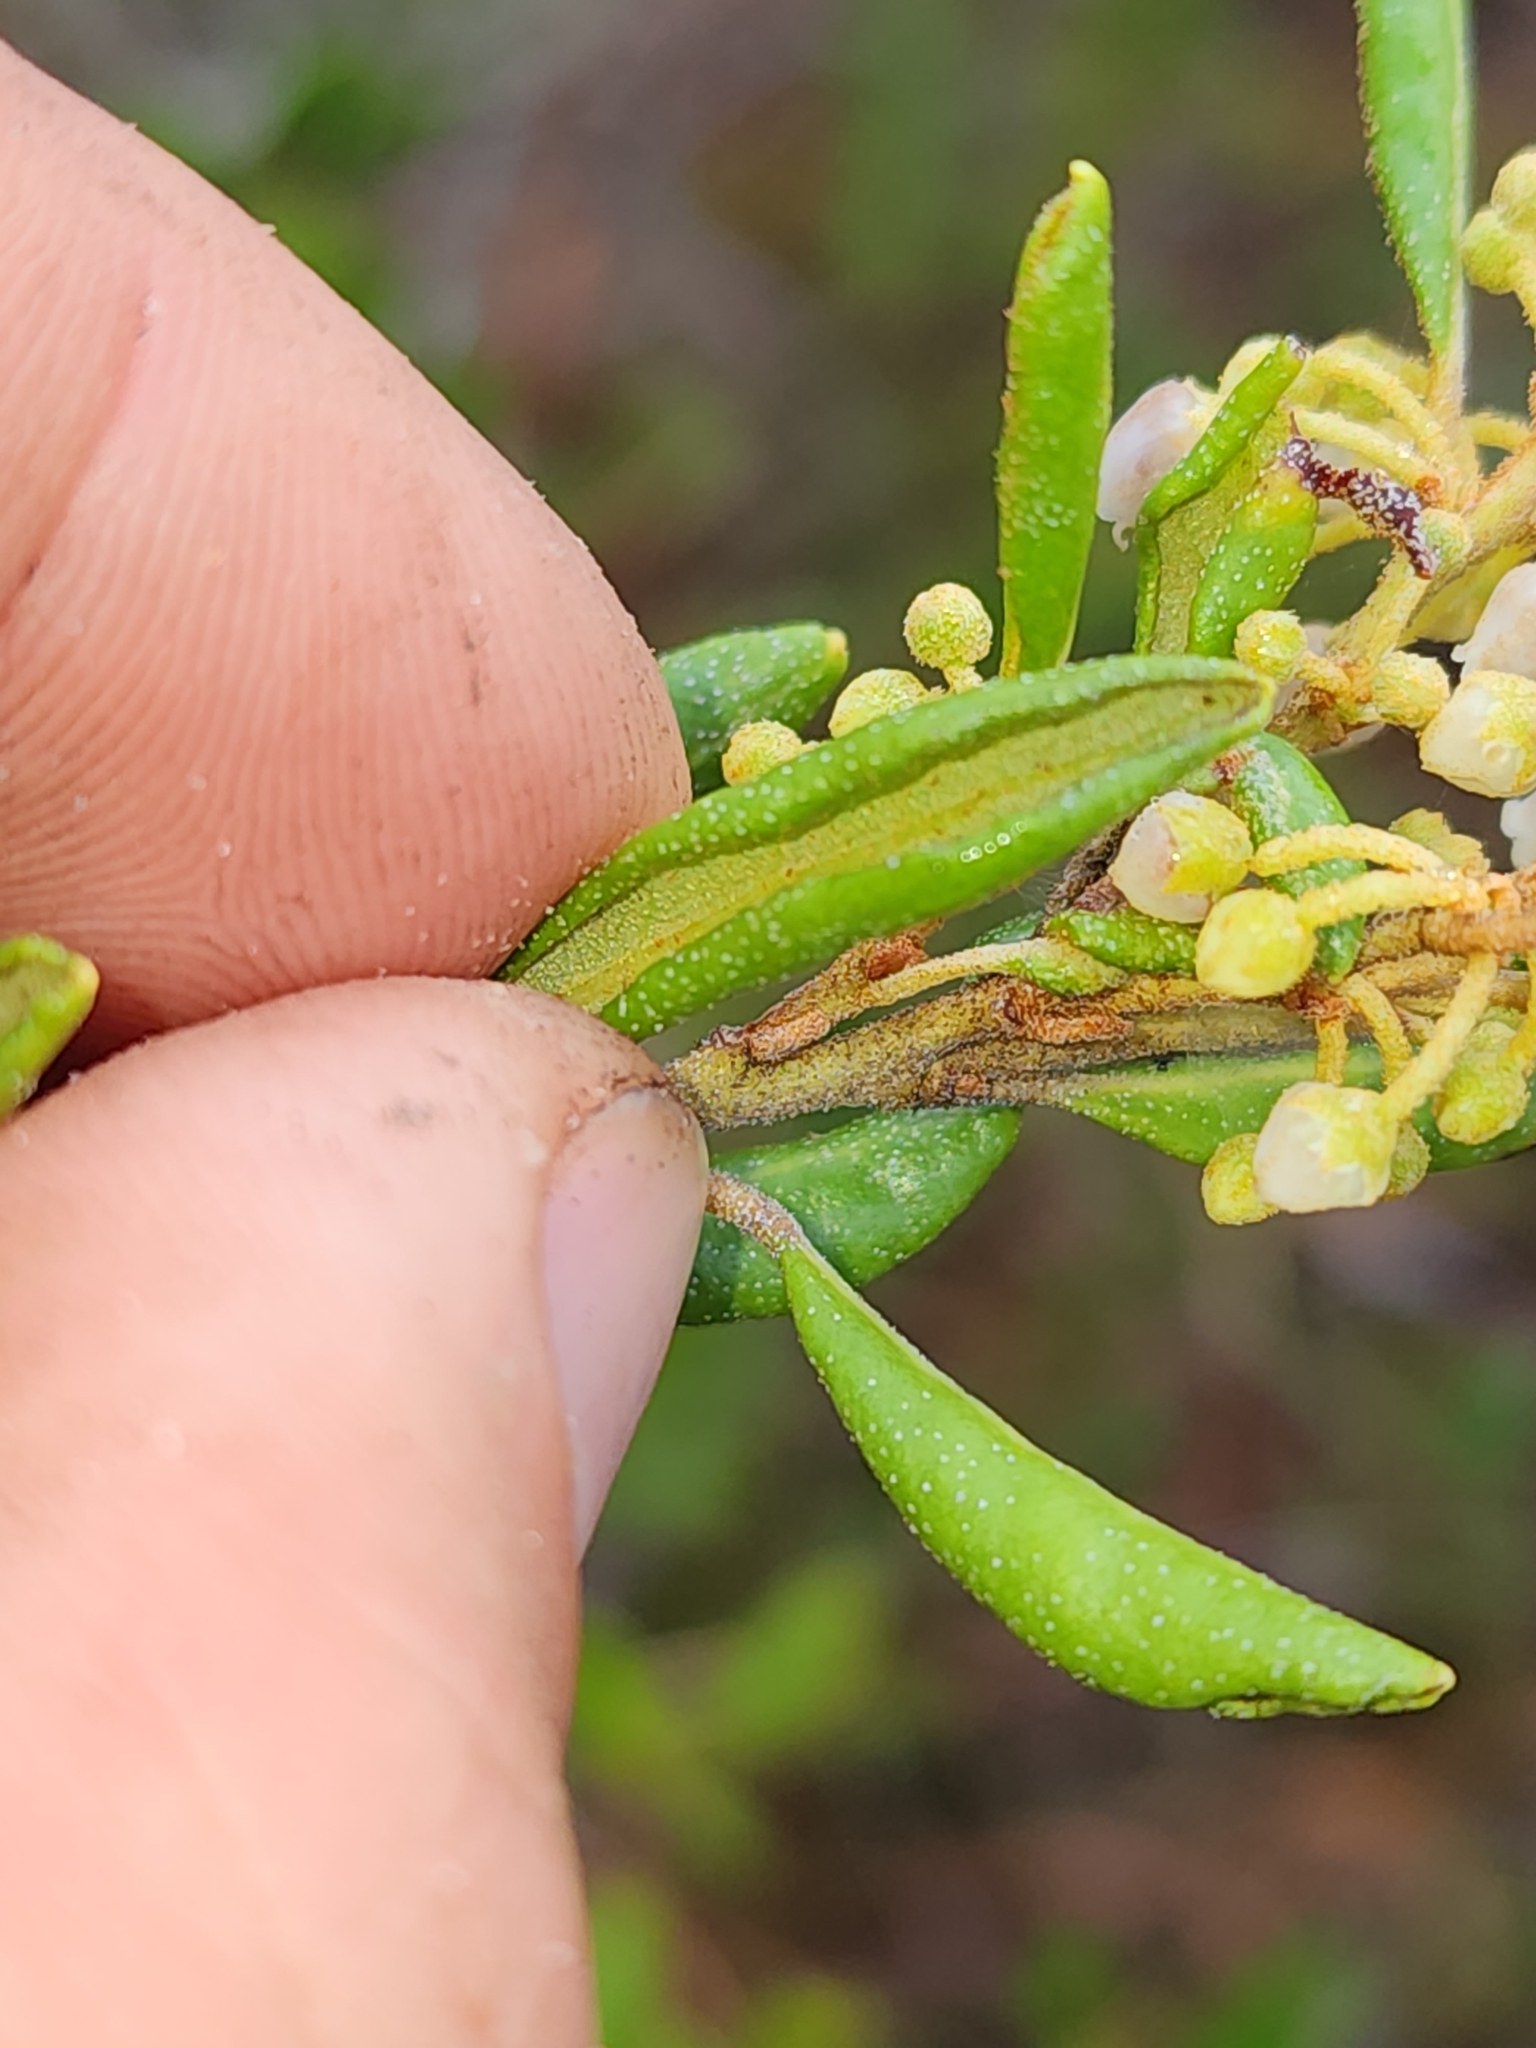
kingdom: Plantae
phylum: Tracheophyta
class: Magnoliopsida
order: Ericales
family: Ericaceae
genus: Lyonia
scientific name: Lyonia ferruginea
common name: Rusty lyonia
